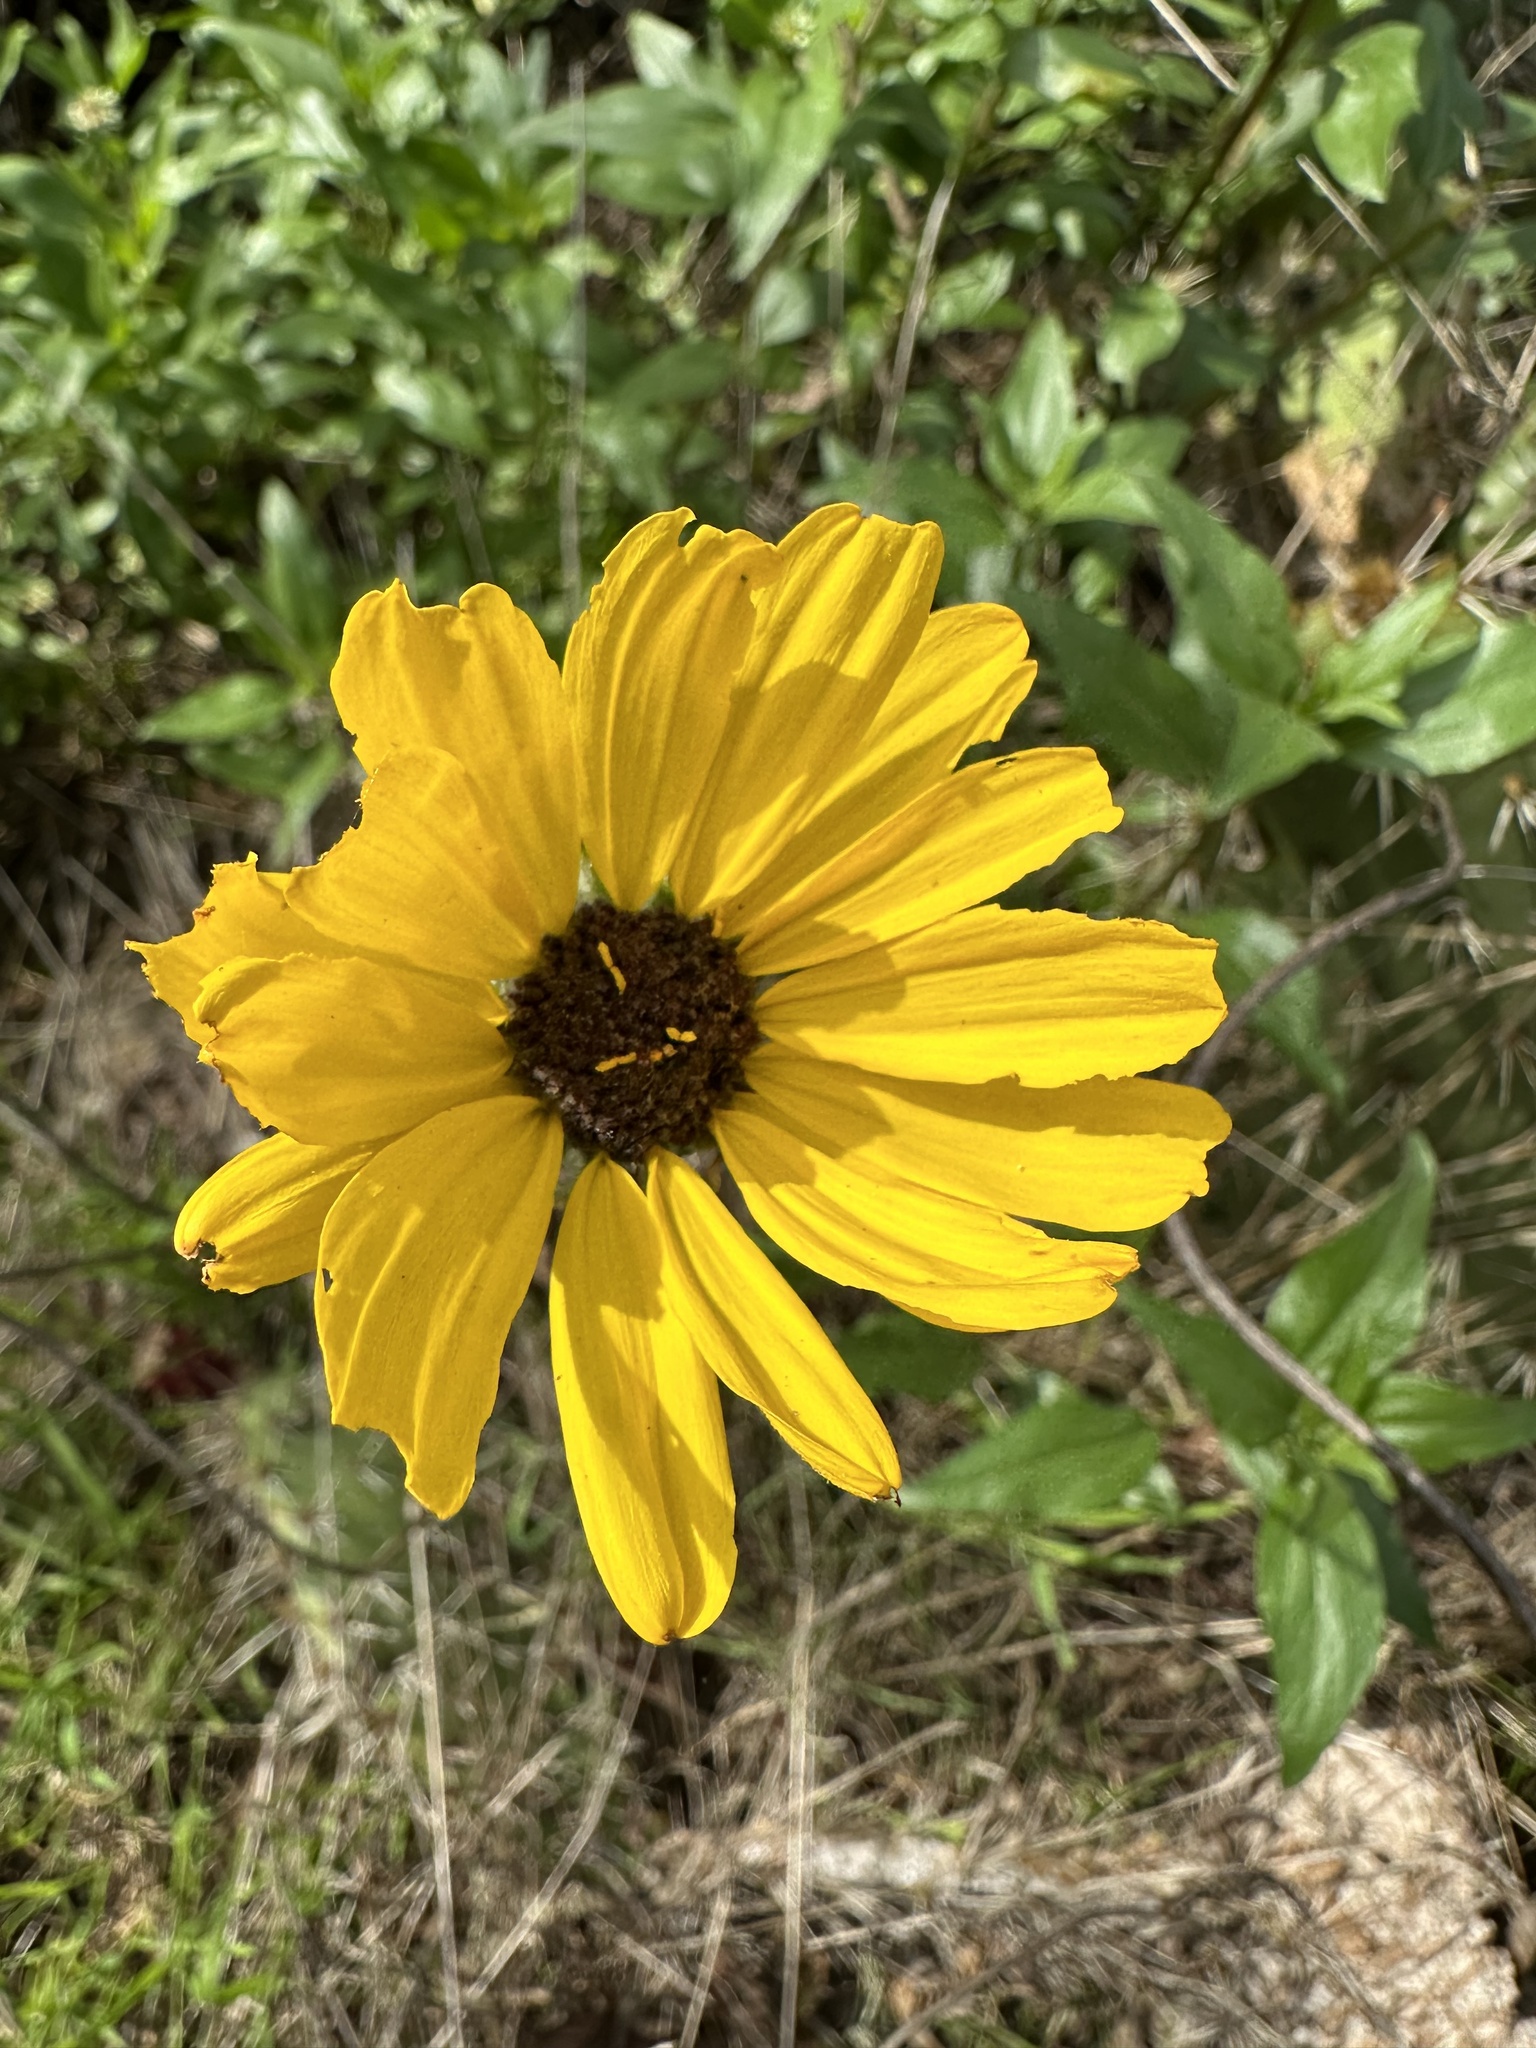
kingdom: Plantae
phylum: Tracheophyta
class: Magnoliopsida
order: Asterales
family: Asteraceae
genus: Encelia
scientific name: Encelia californica
